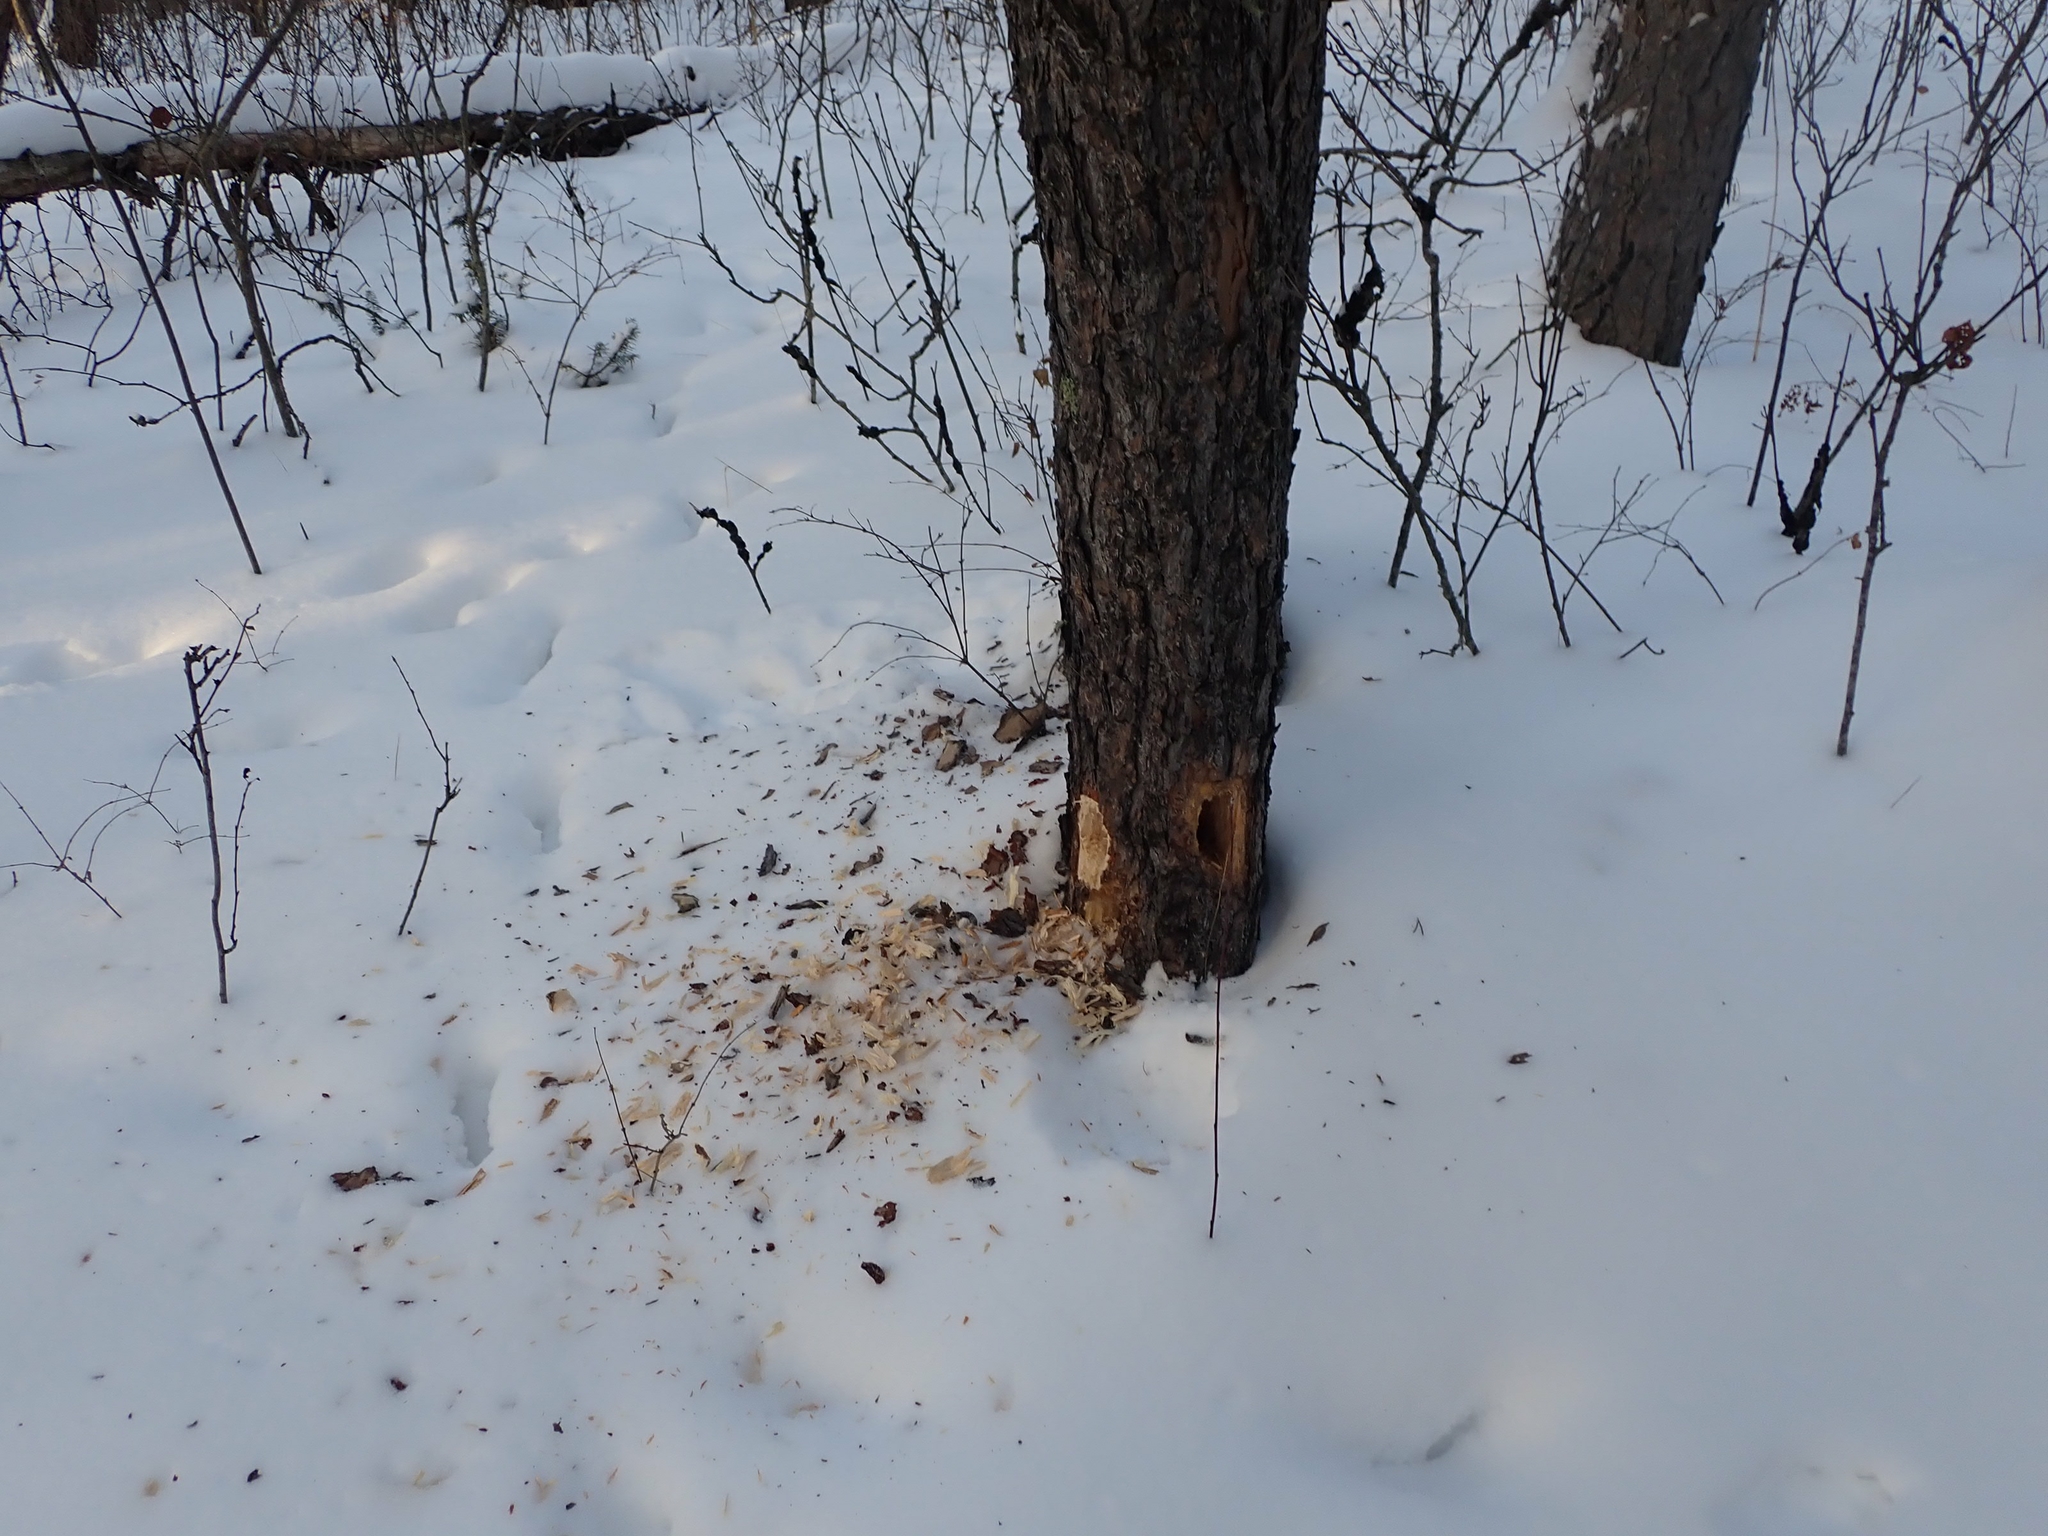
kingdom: Animalia
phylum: Chordata
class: Aves
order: Piciformes
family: Picidae
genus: Dryocopus
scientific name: Dryocopus pileatus
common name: Pileated woodpecker
